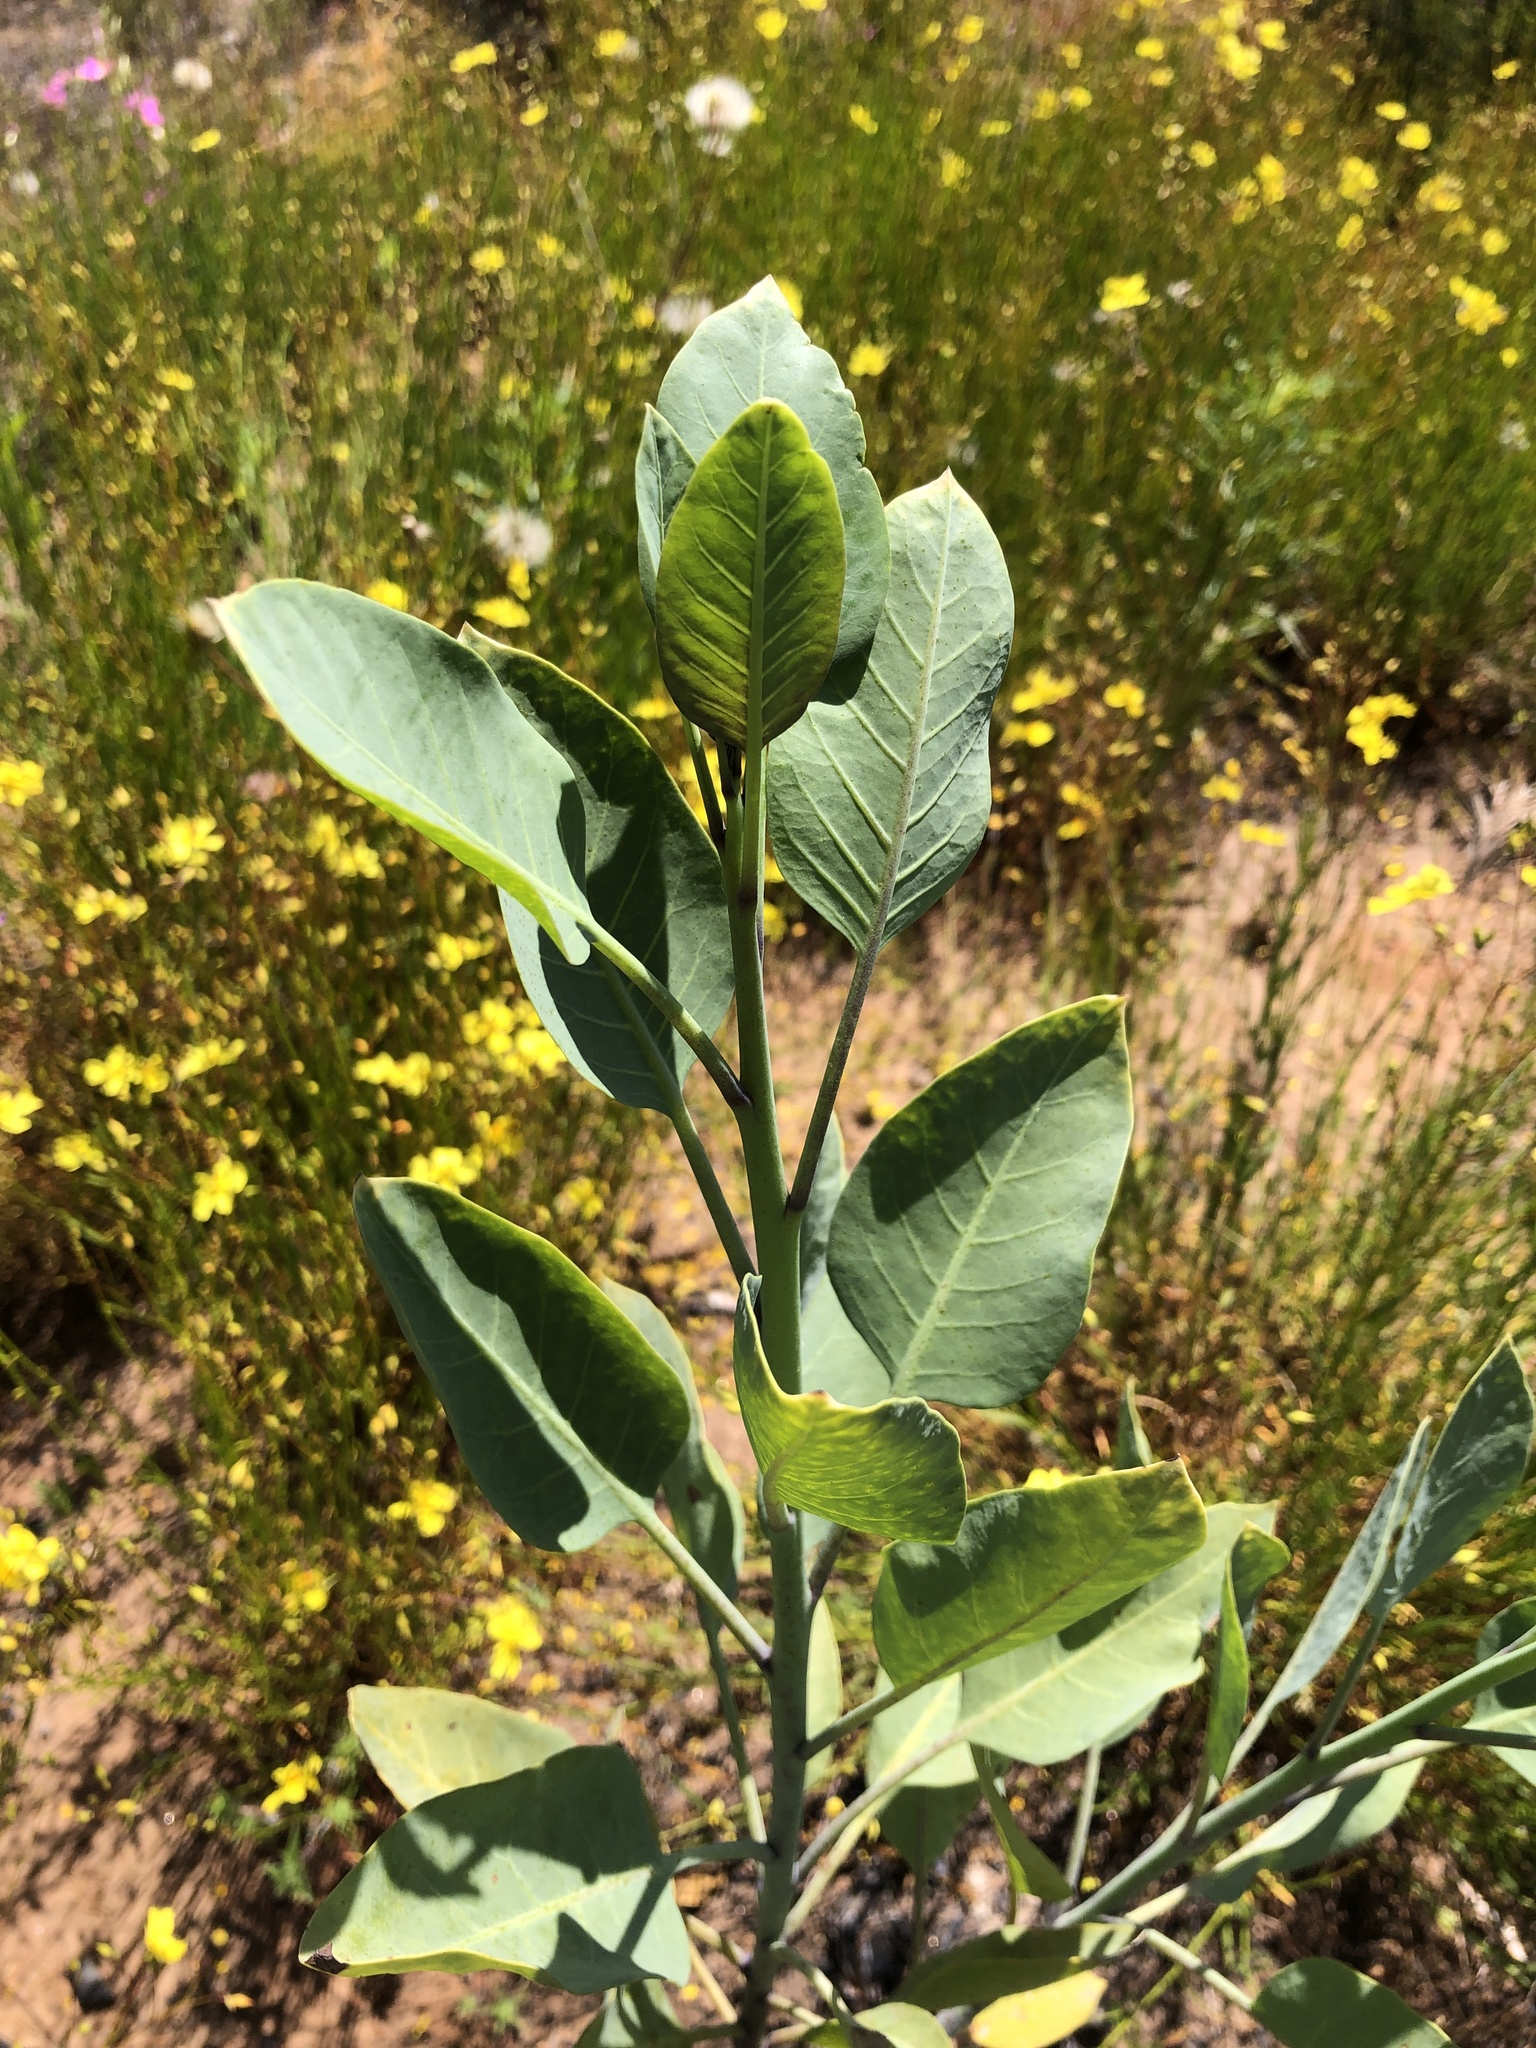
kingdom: Plantae
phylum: Tracheophyta
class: Magnoliopsida
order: Solanales
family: Solanaceae
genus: Nicotiana
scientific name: Nicotiana glauca
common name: Tree tobacco
